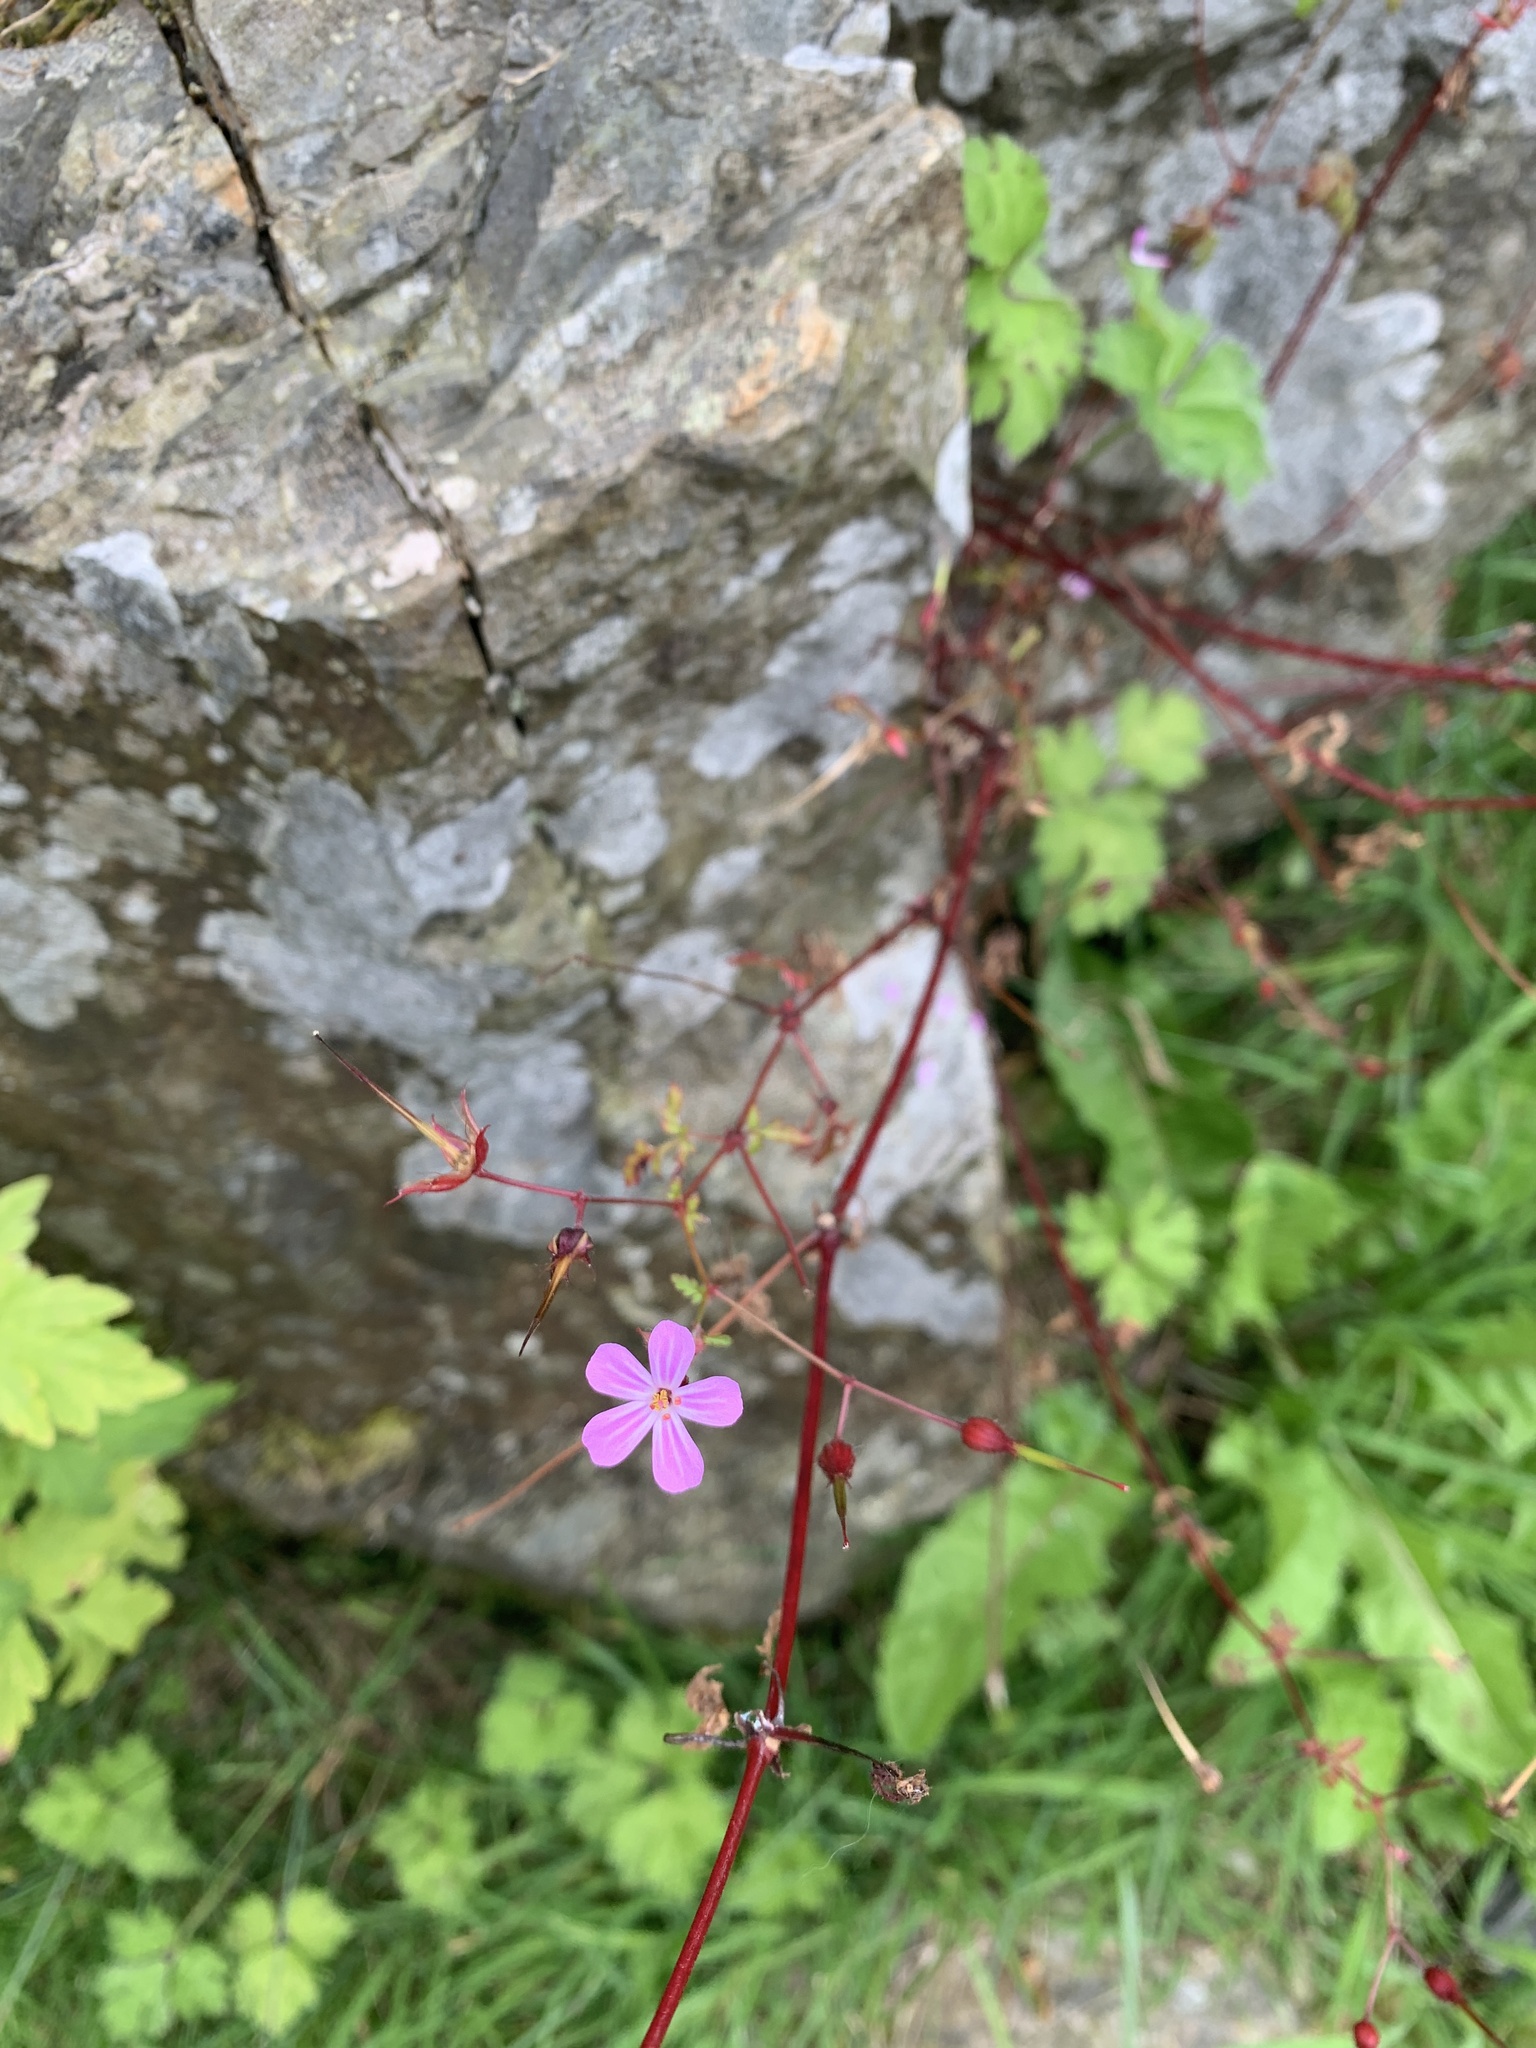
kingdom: Plantae
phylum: Tracheophyta
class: Magnoliopsida
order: Geraniales
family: Geraniaceae
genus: Geranium
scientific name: Geranium robertianum
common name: Herb-robert
